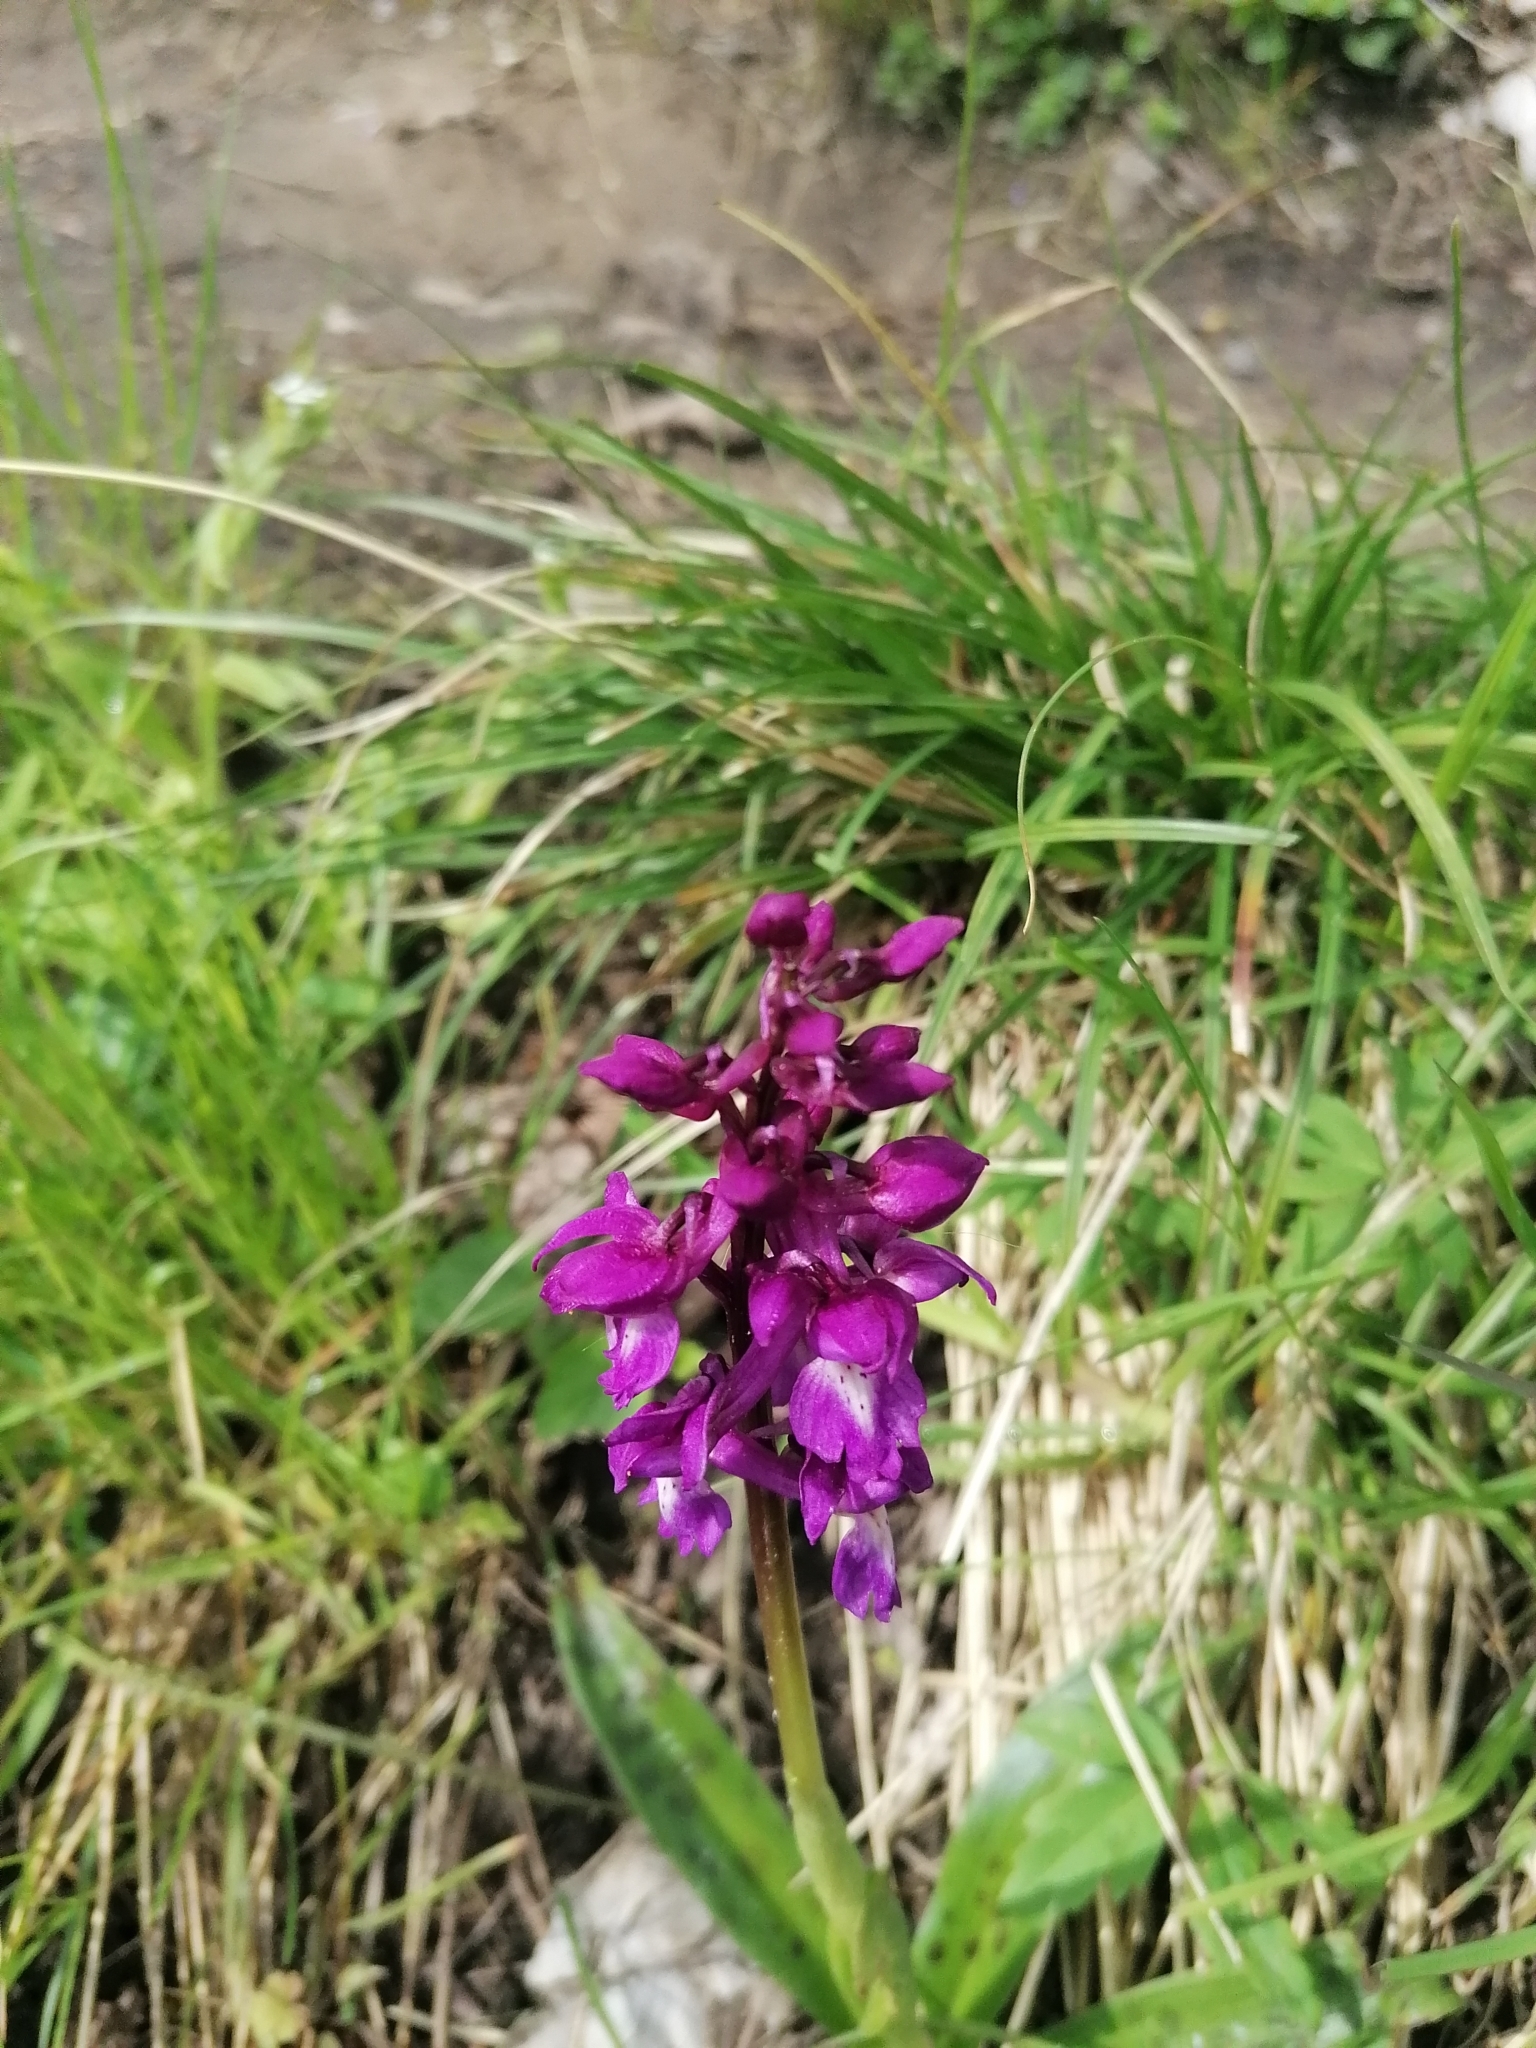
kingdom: Plantae
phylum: Tracheophyta
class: Liliopsida
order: Asparagales
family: Orchidaceae
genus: Orchis
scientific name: Orchis mascula
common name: Early-purple orchid
